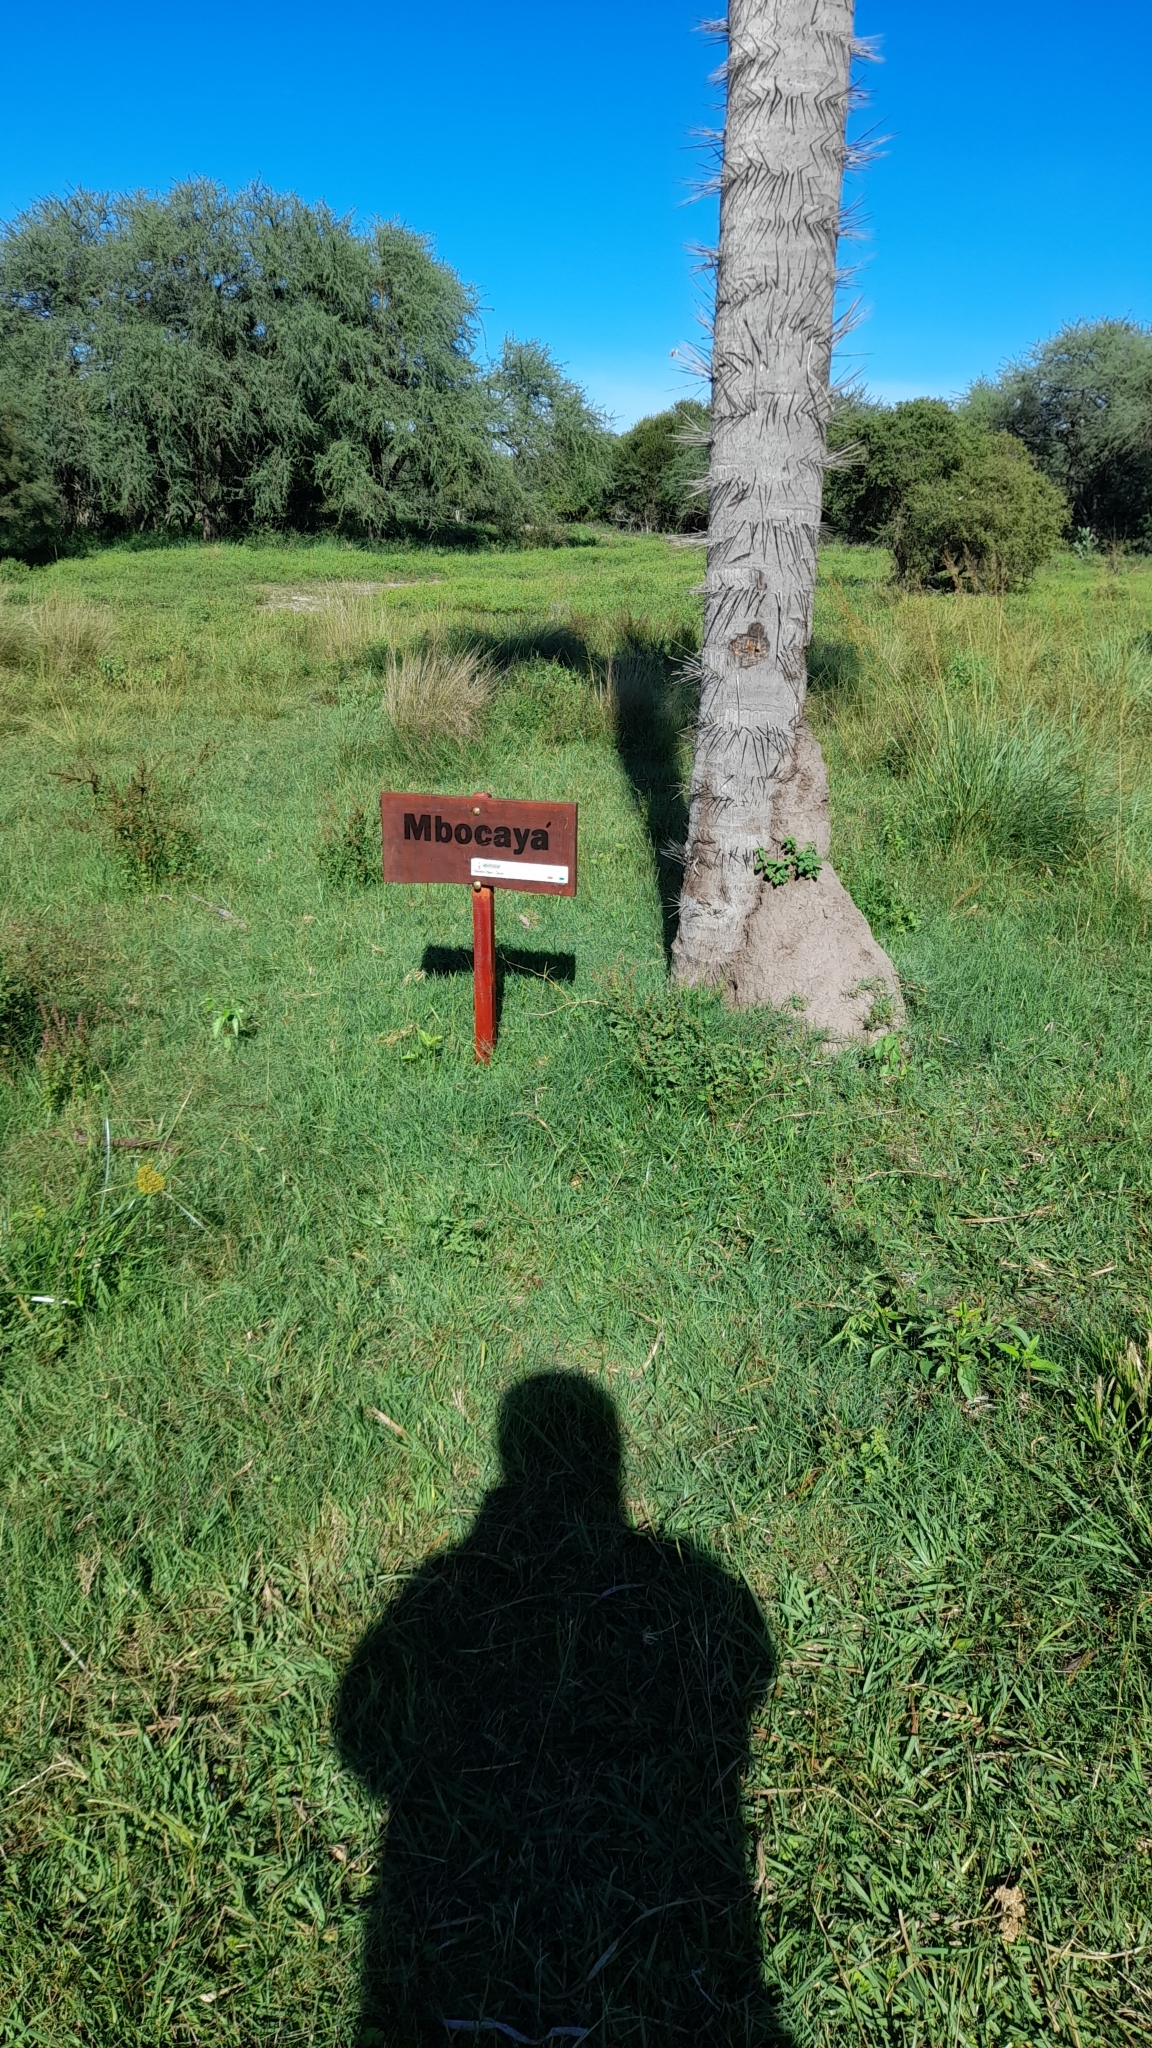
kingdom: Plantae
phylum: Tracheophyta
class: Liliopsida
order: Arecales
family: Arecaceae
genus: Acrocomia
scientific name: Acrocomia aculeata
